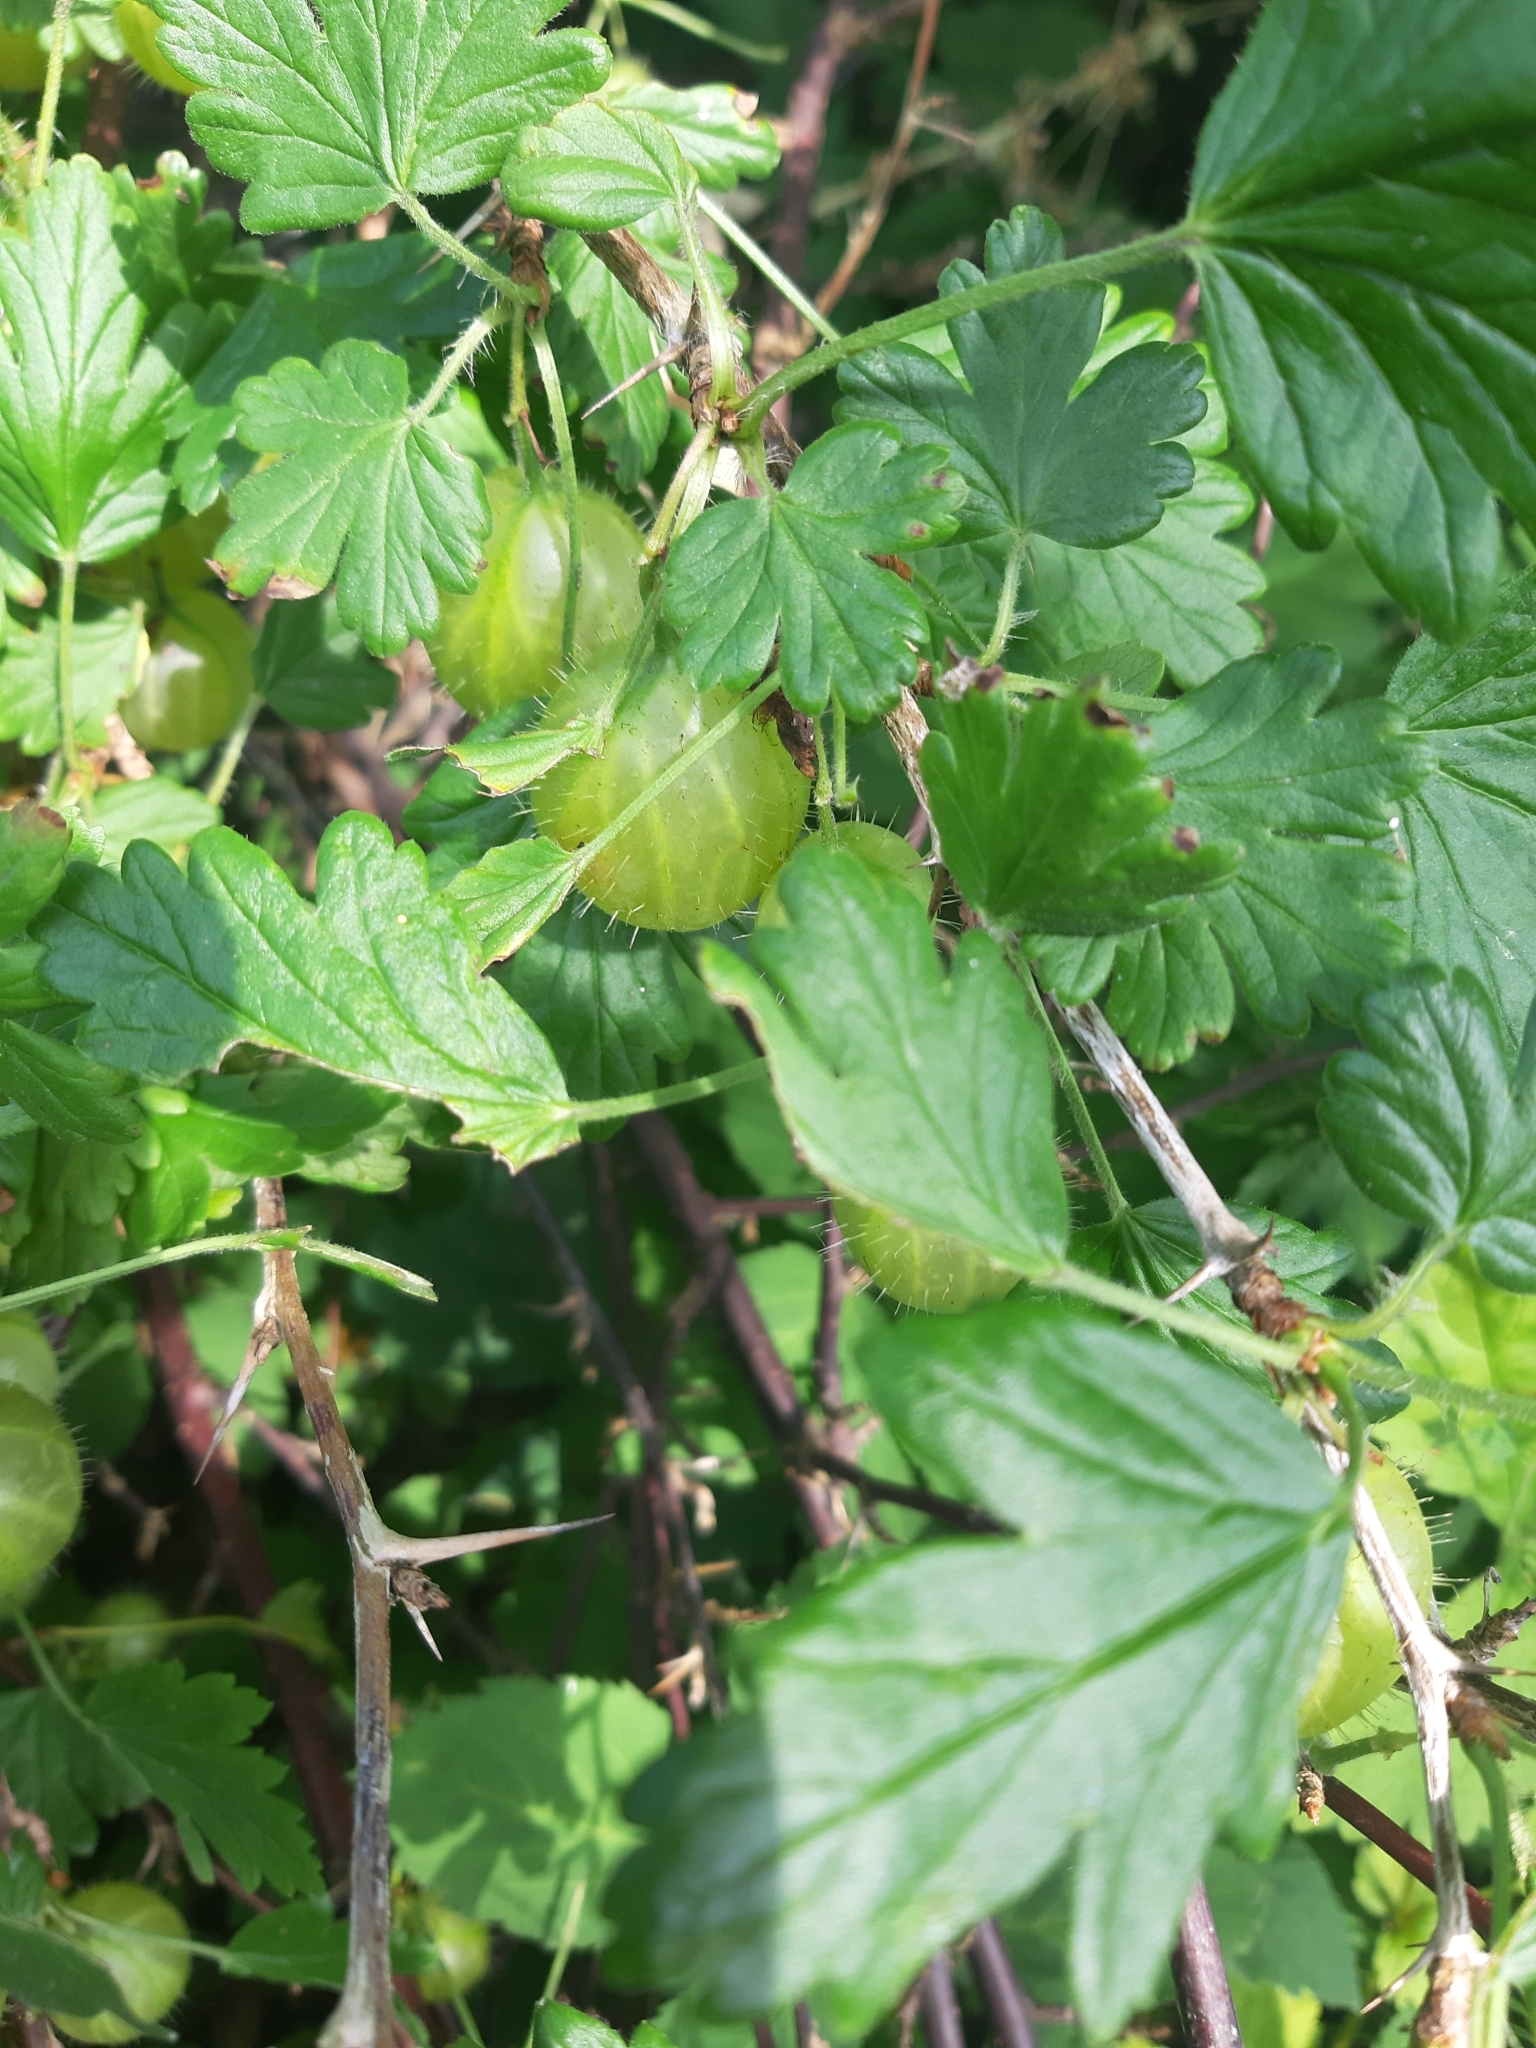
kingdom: Plantae
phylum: Tracheophyta
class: Magnoliopsida
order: Saxifragales
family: Grossulariaceae
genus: Ribes
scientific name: Ribes uva-crispa
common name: Gooseberry
